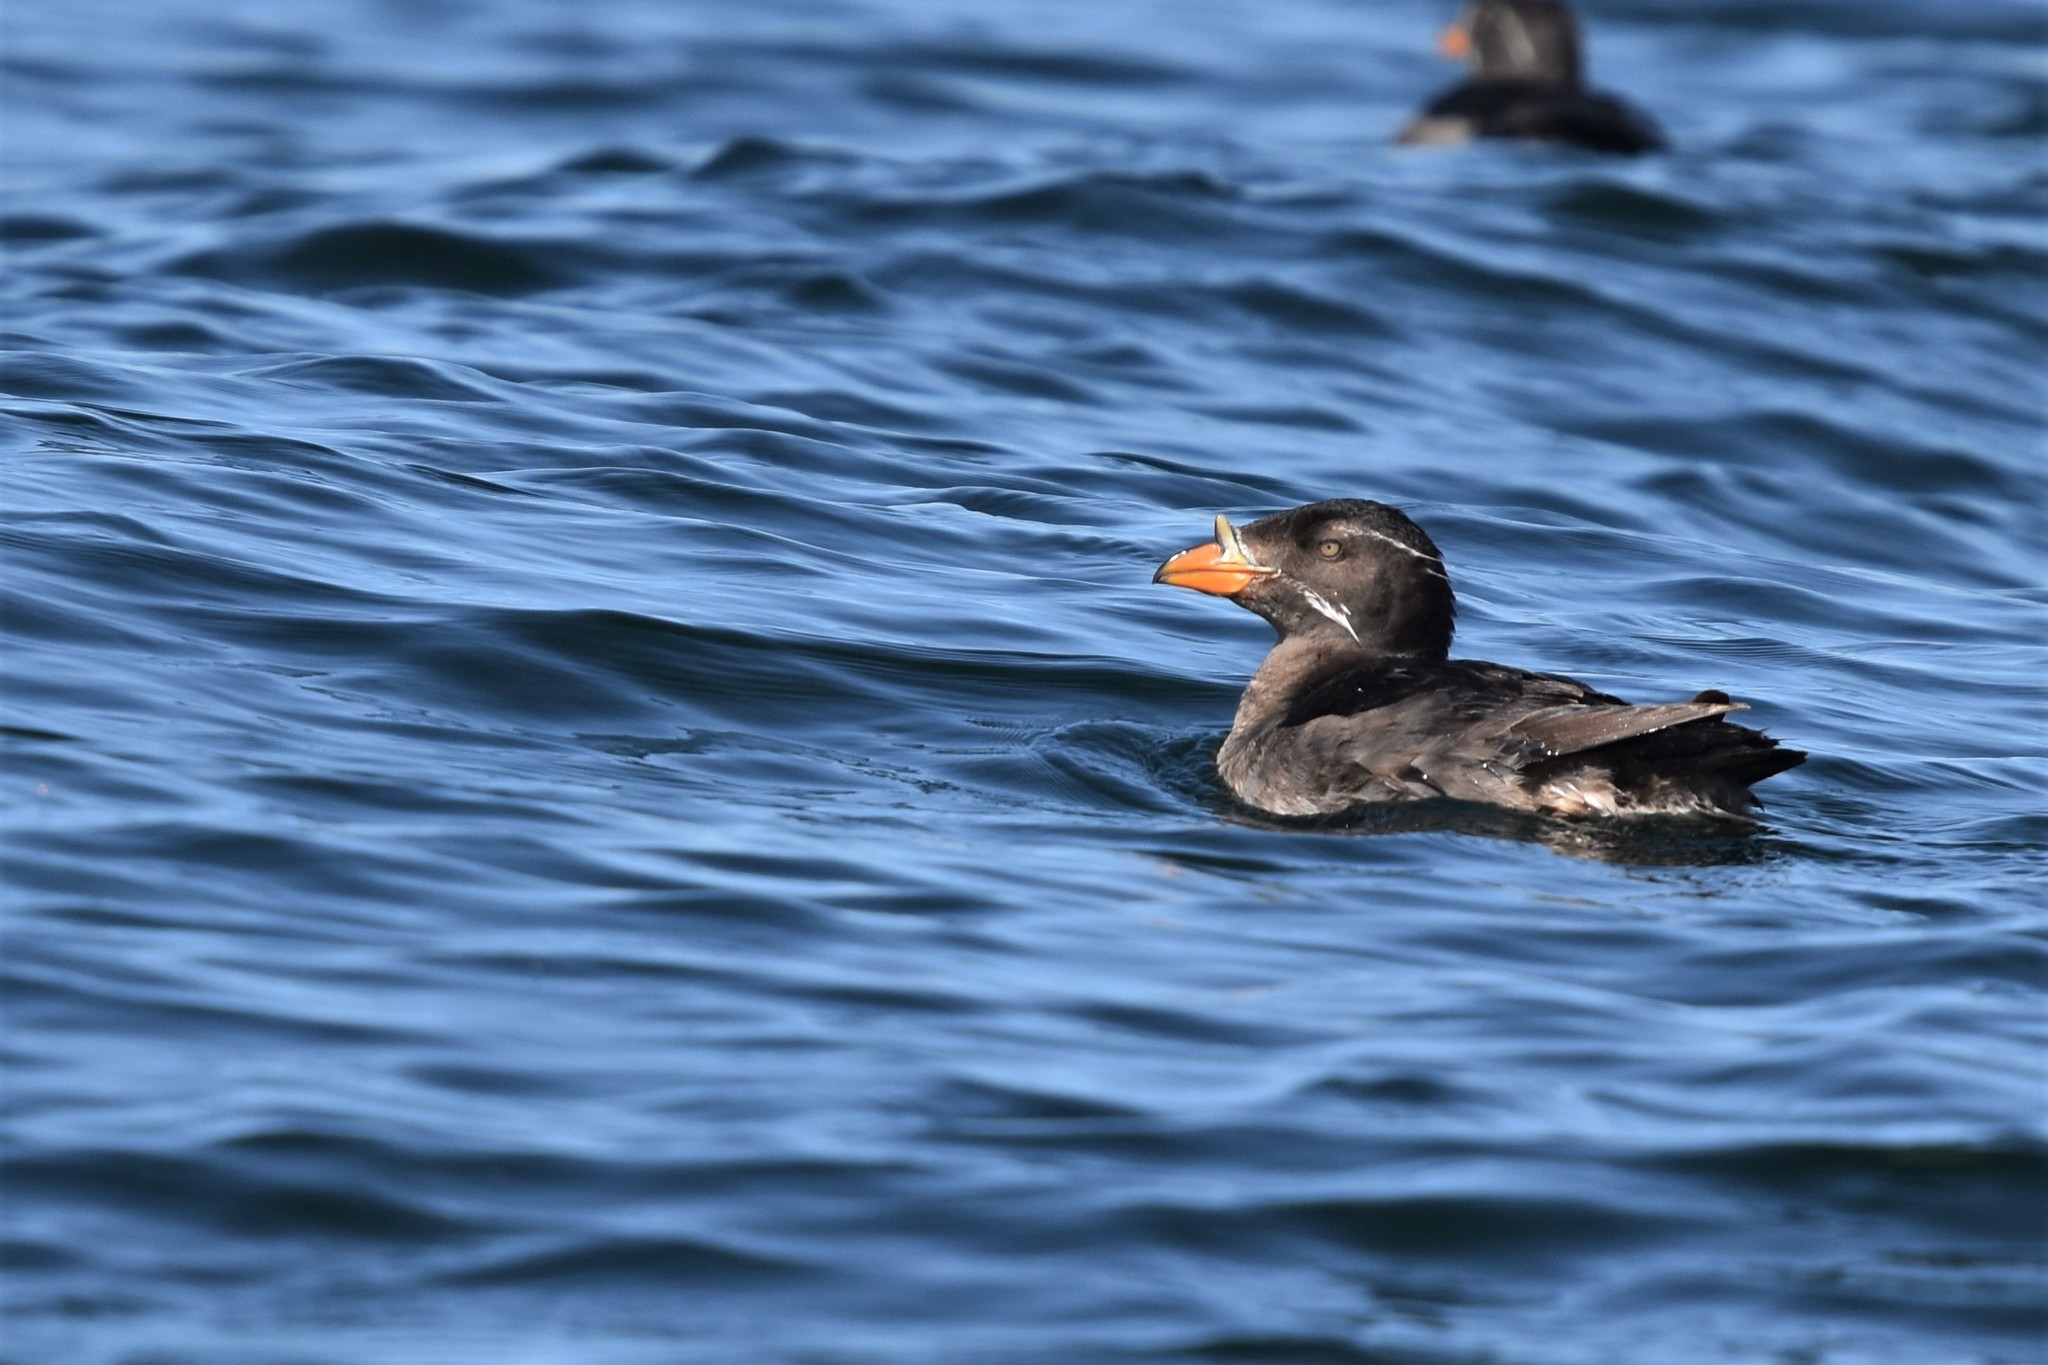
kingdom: Animalia
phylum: Chordata
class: Aves
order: Charadriiformes
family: Alcidae
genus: Cerorhinca
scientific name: Cerorhinca monocerata
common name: Rhinoceros auklet
